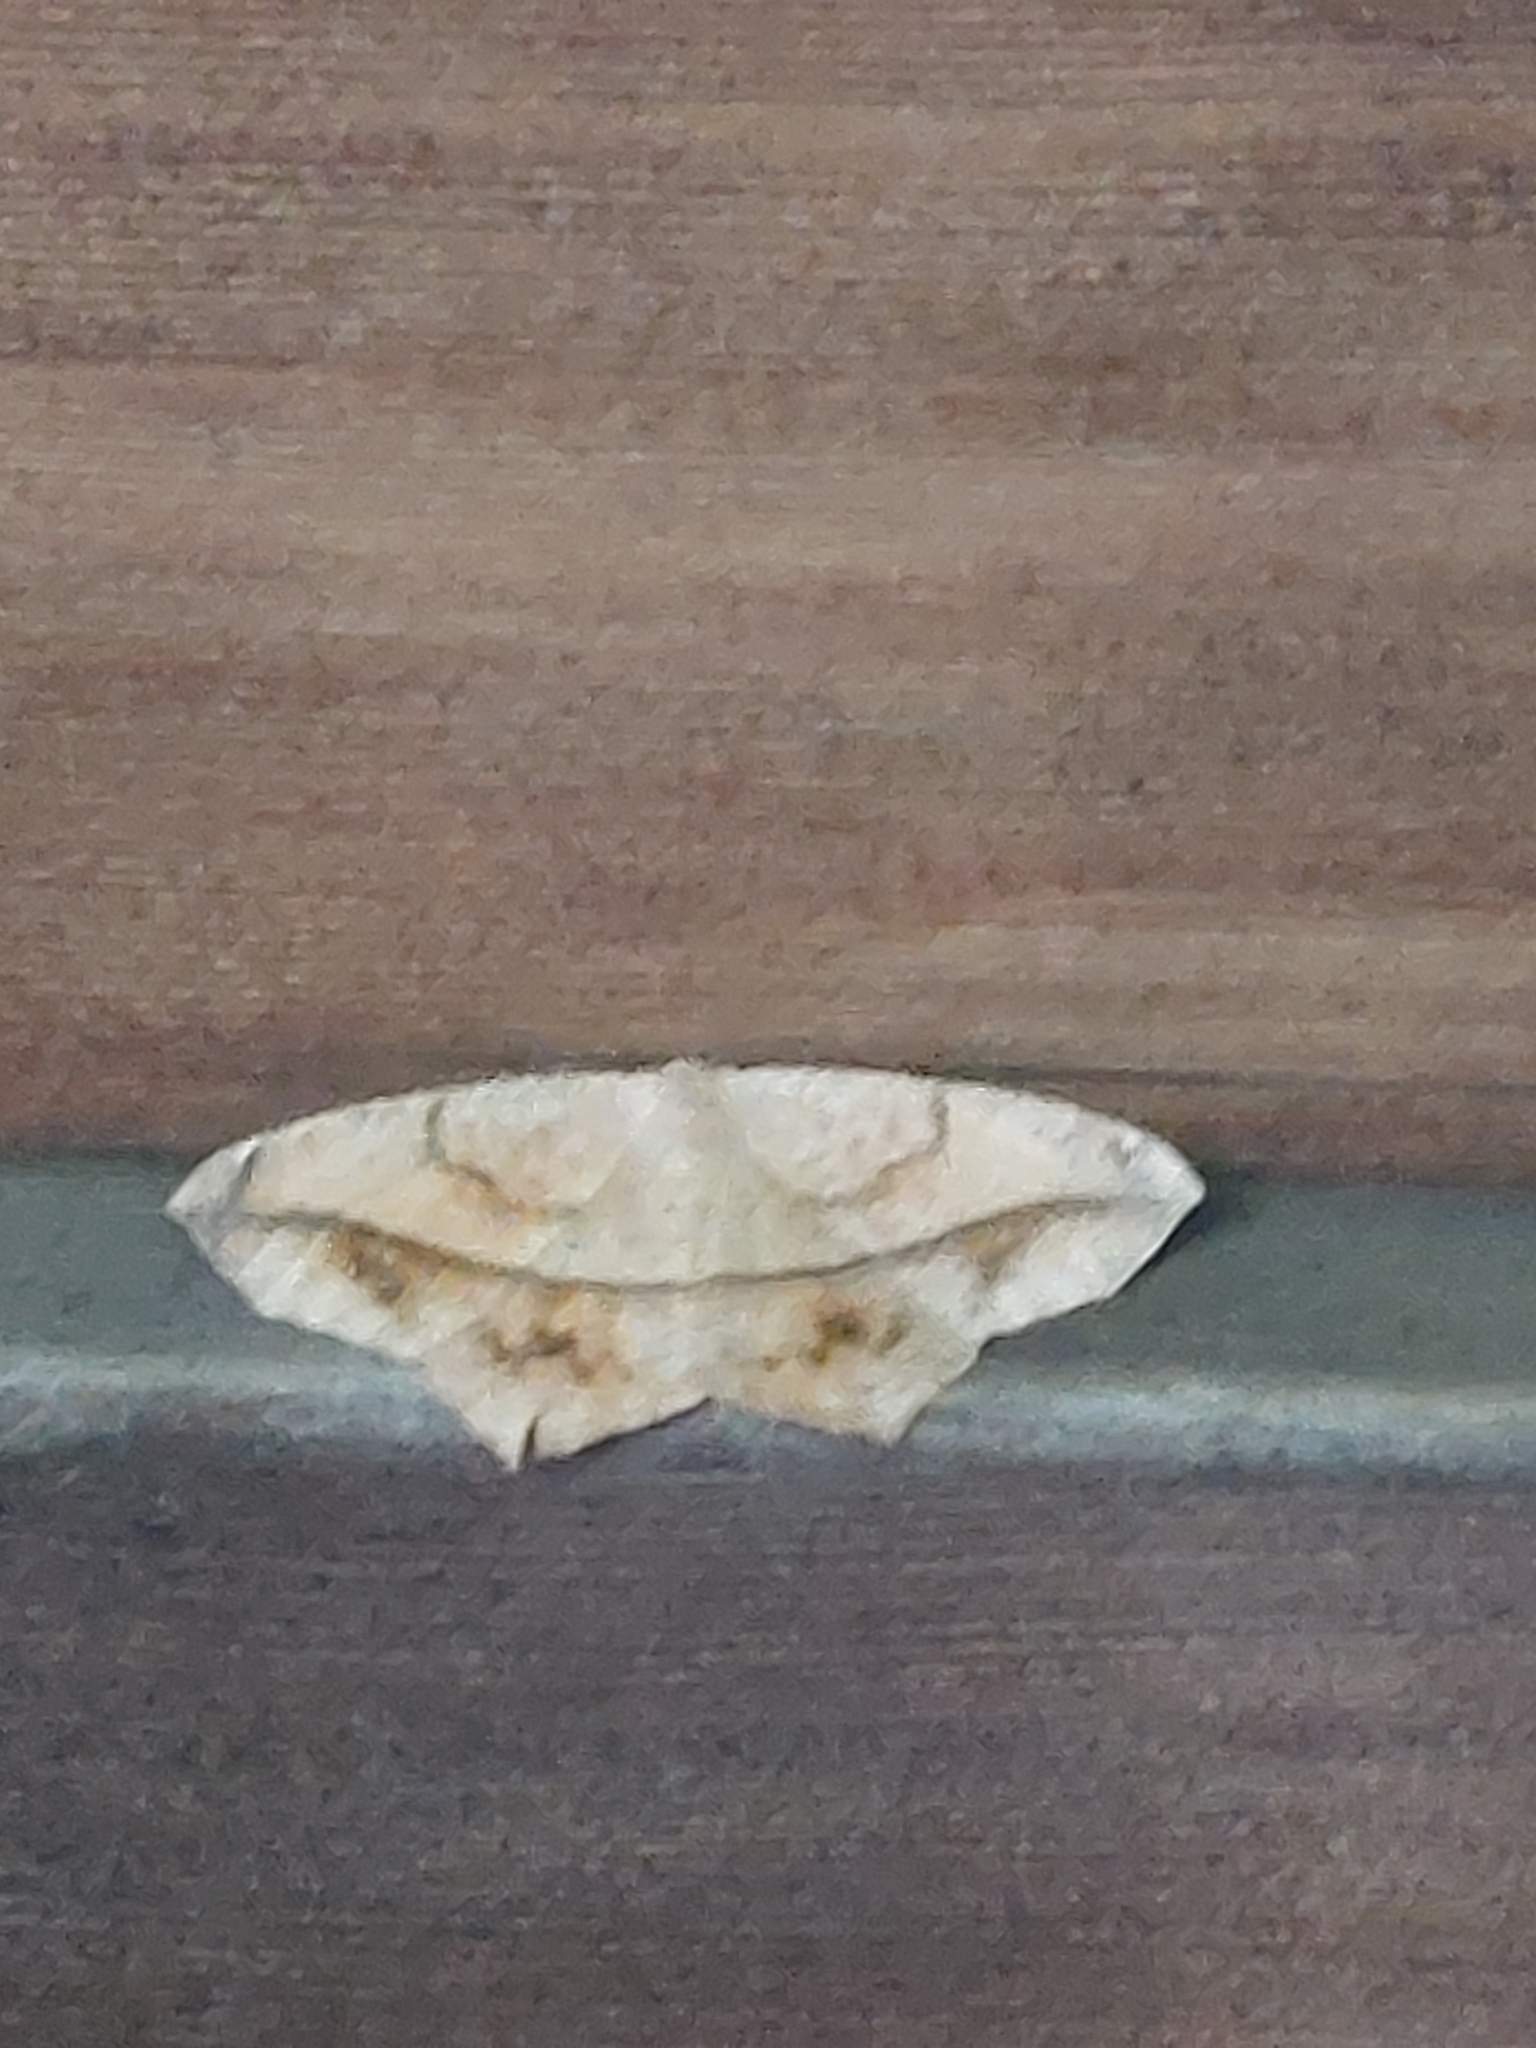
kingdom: Animalia
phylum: Arthropoda
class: Insecta
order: Lepidoptera
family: Geometridae
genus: Prochoerodes
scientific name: Prochoerodes lineola
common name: Large maple spanworm
